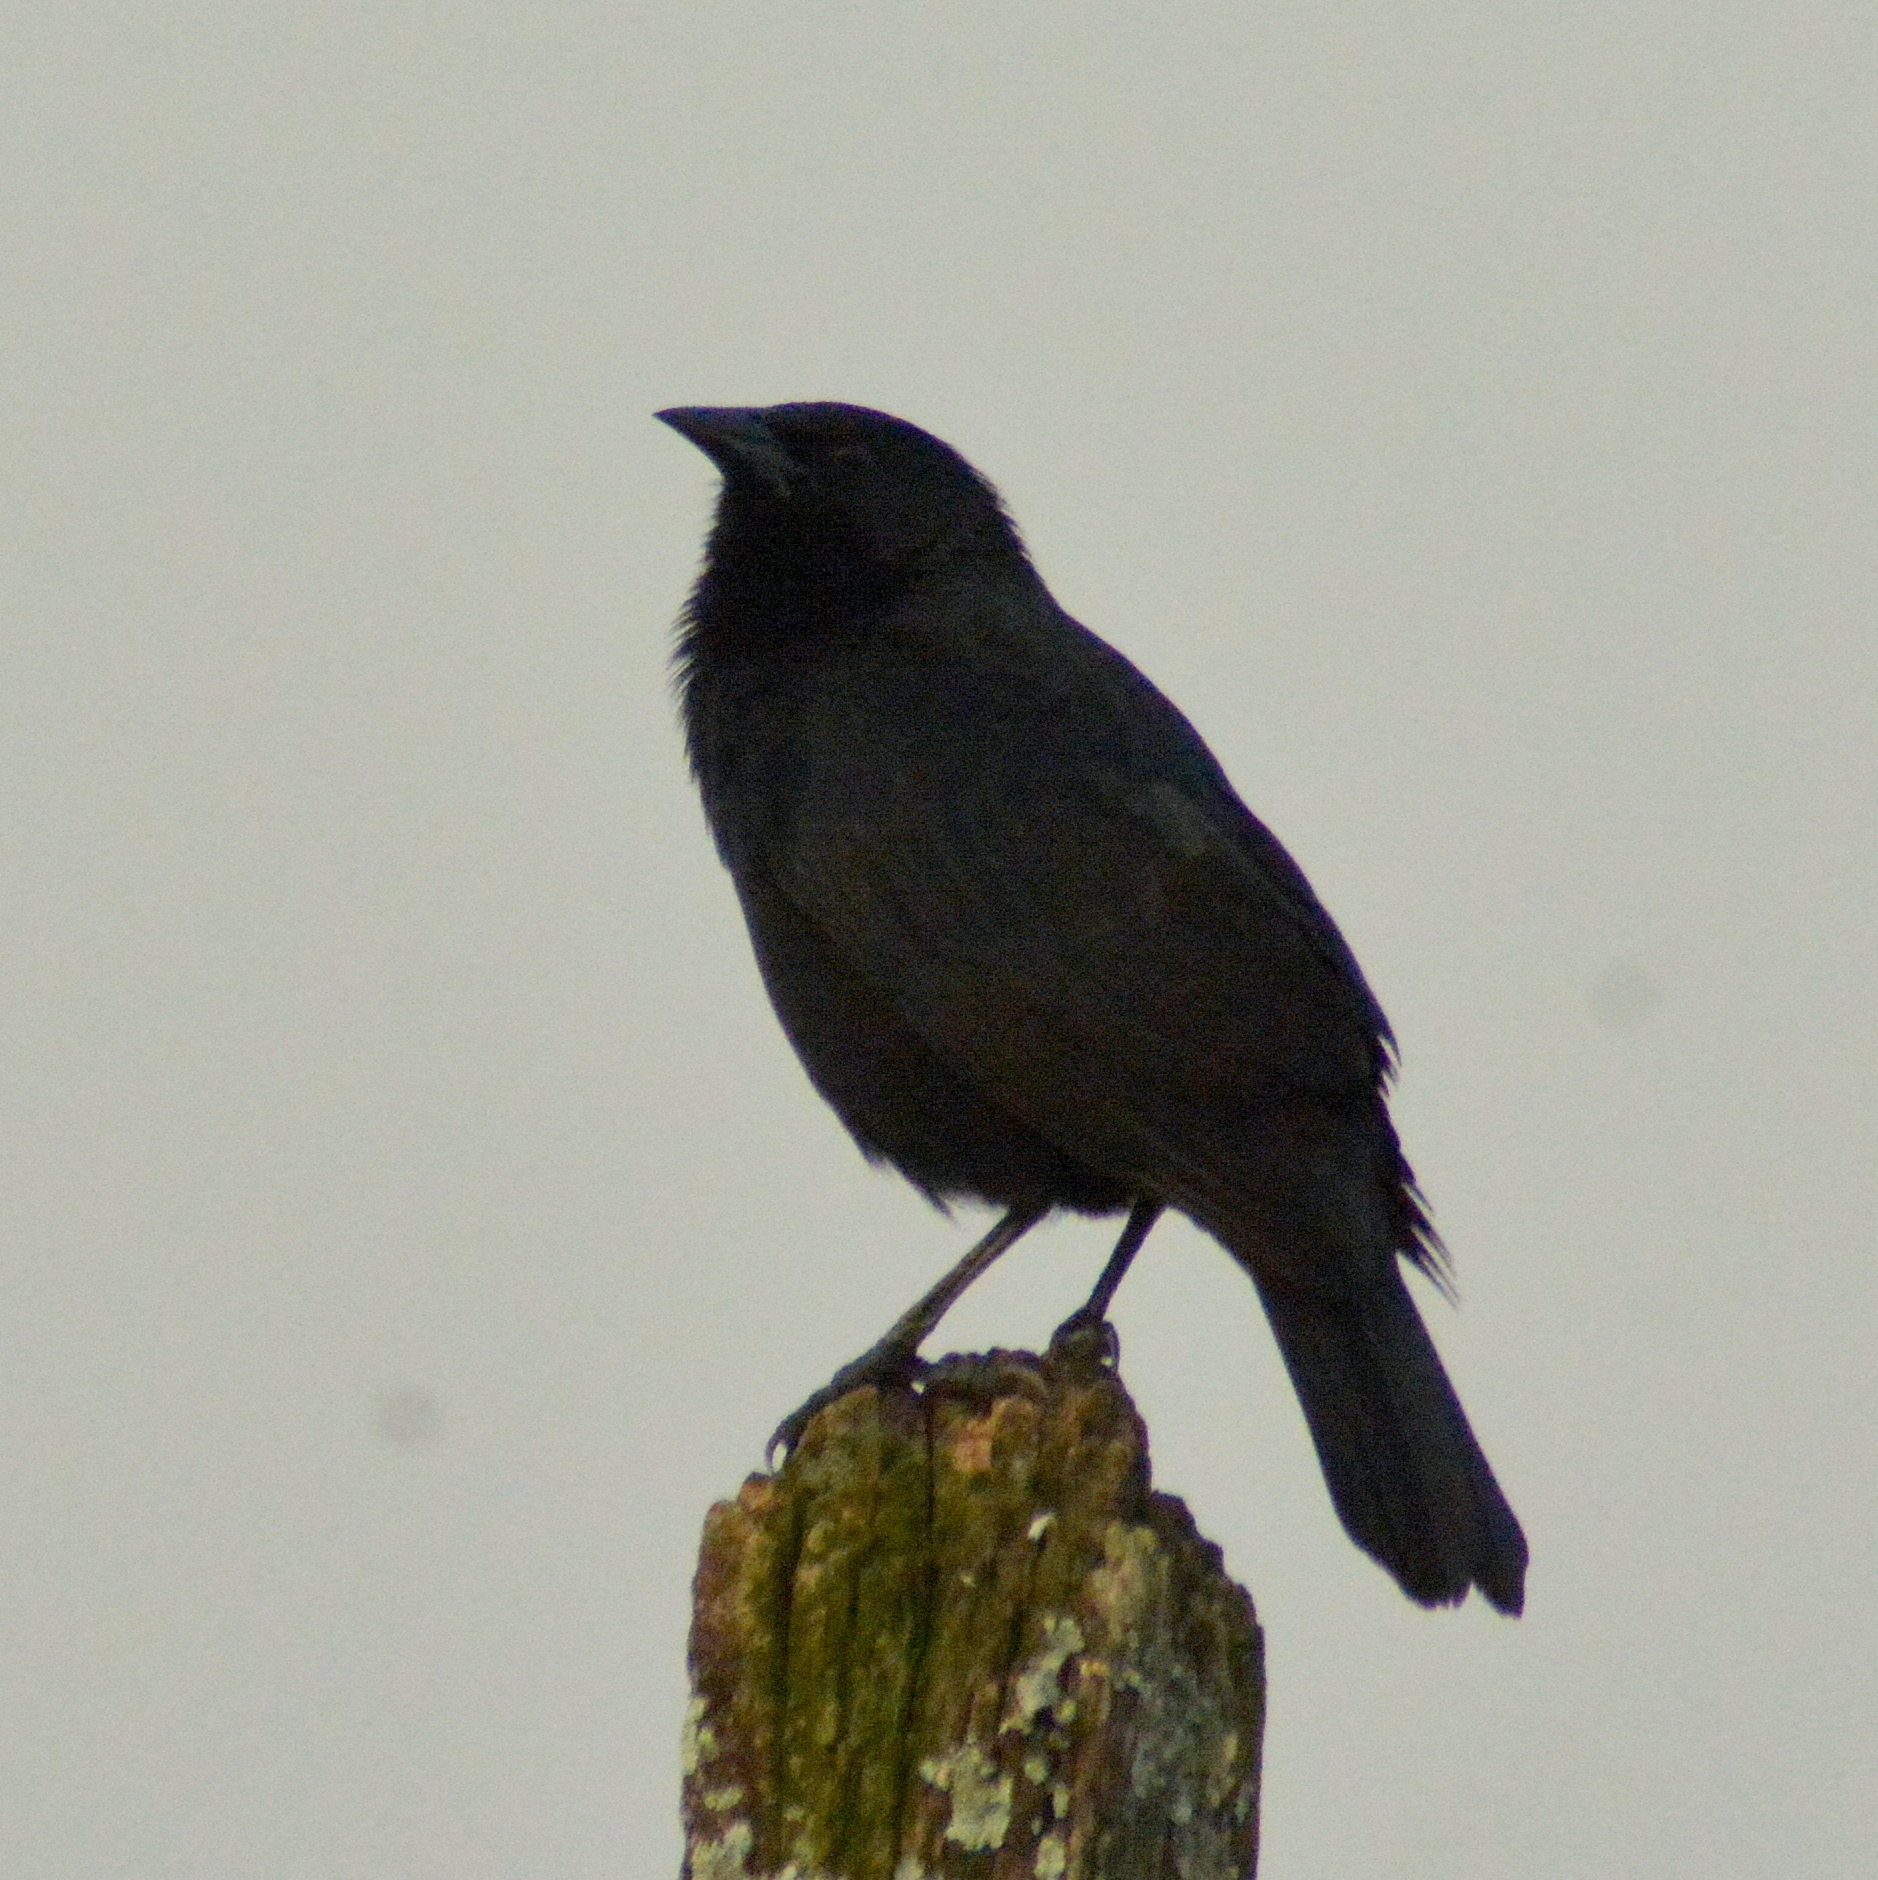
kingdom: Animalia
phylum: Chordata
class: Aves
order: Passeriformes
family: Icteridae
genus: Gnorimopsar
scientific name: Gnorimopsar chopi
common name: Chopi blackbird
